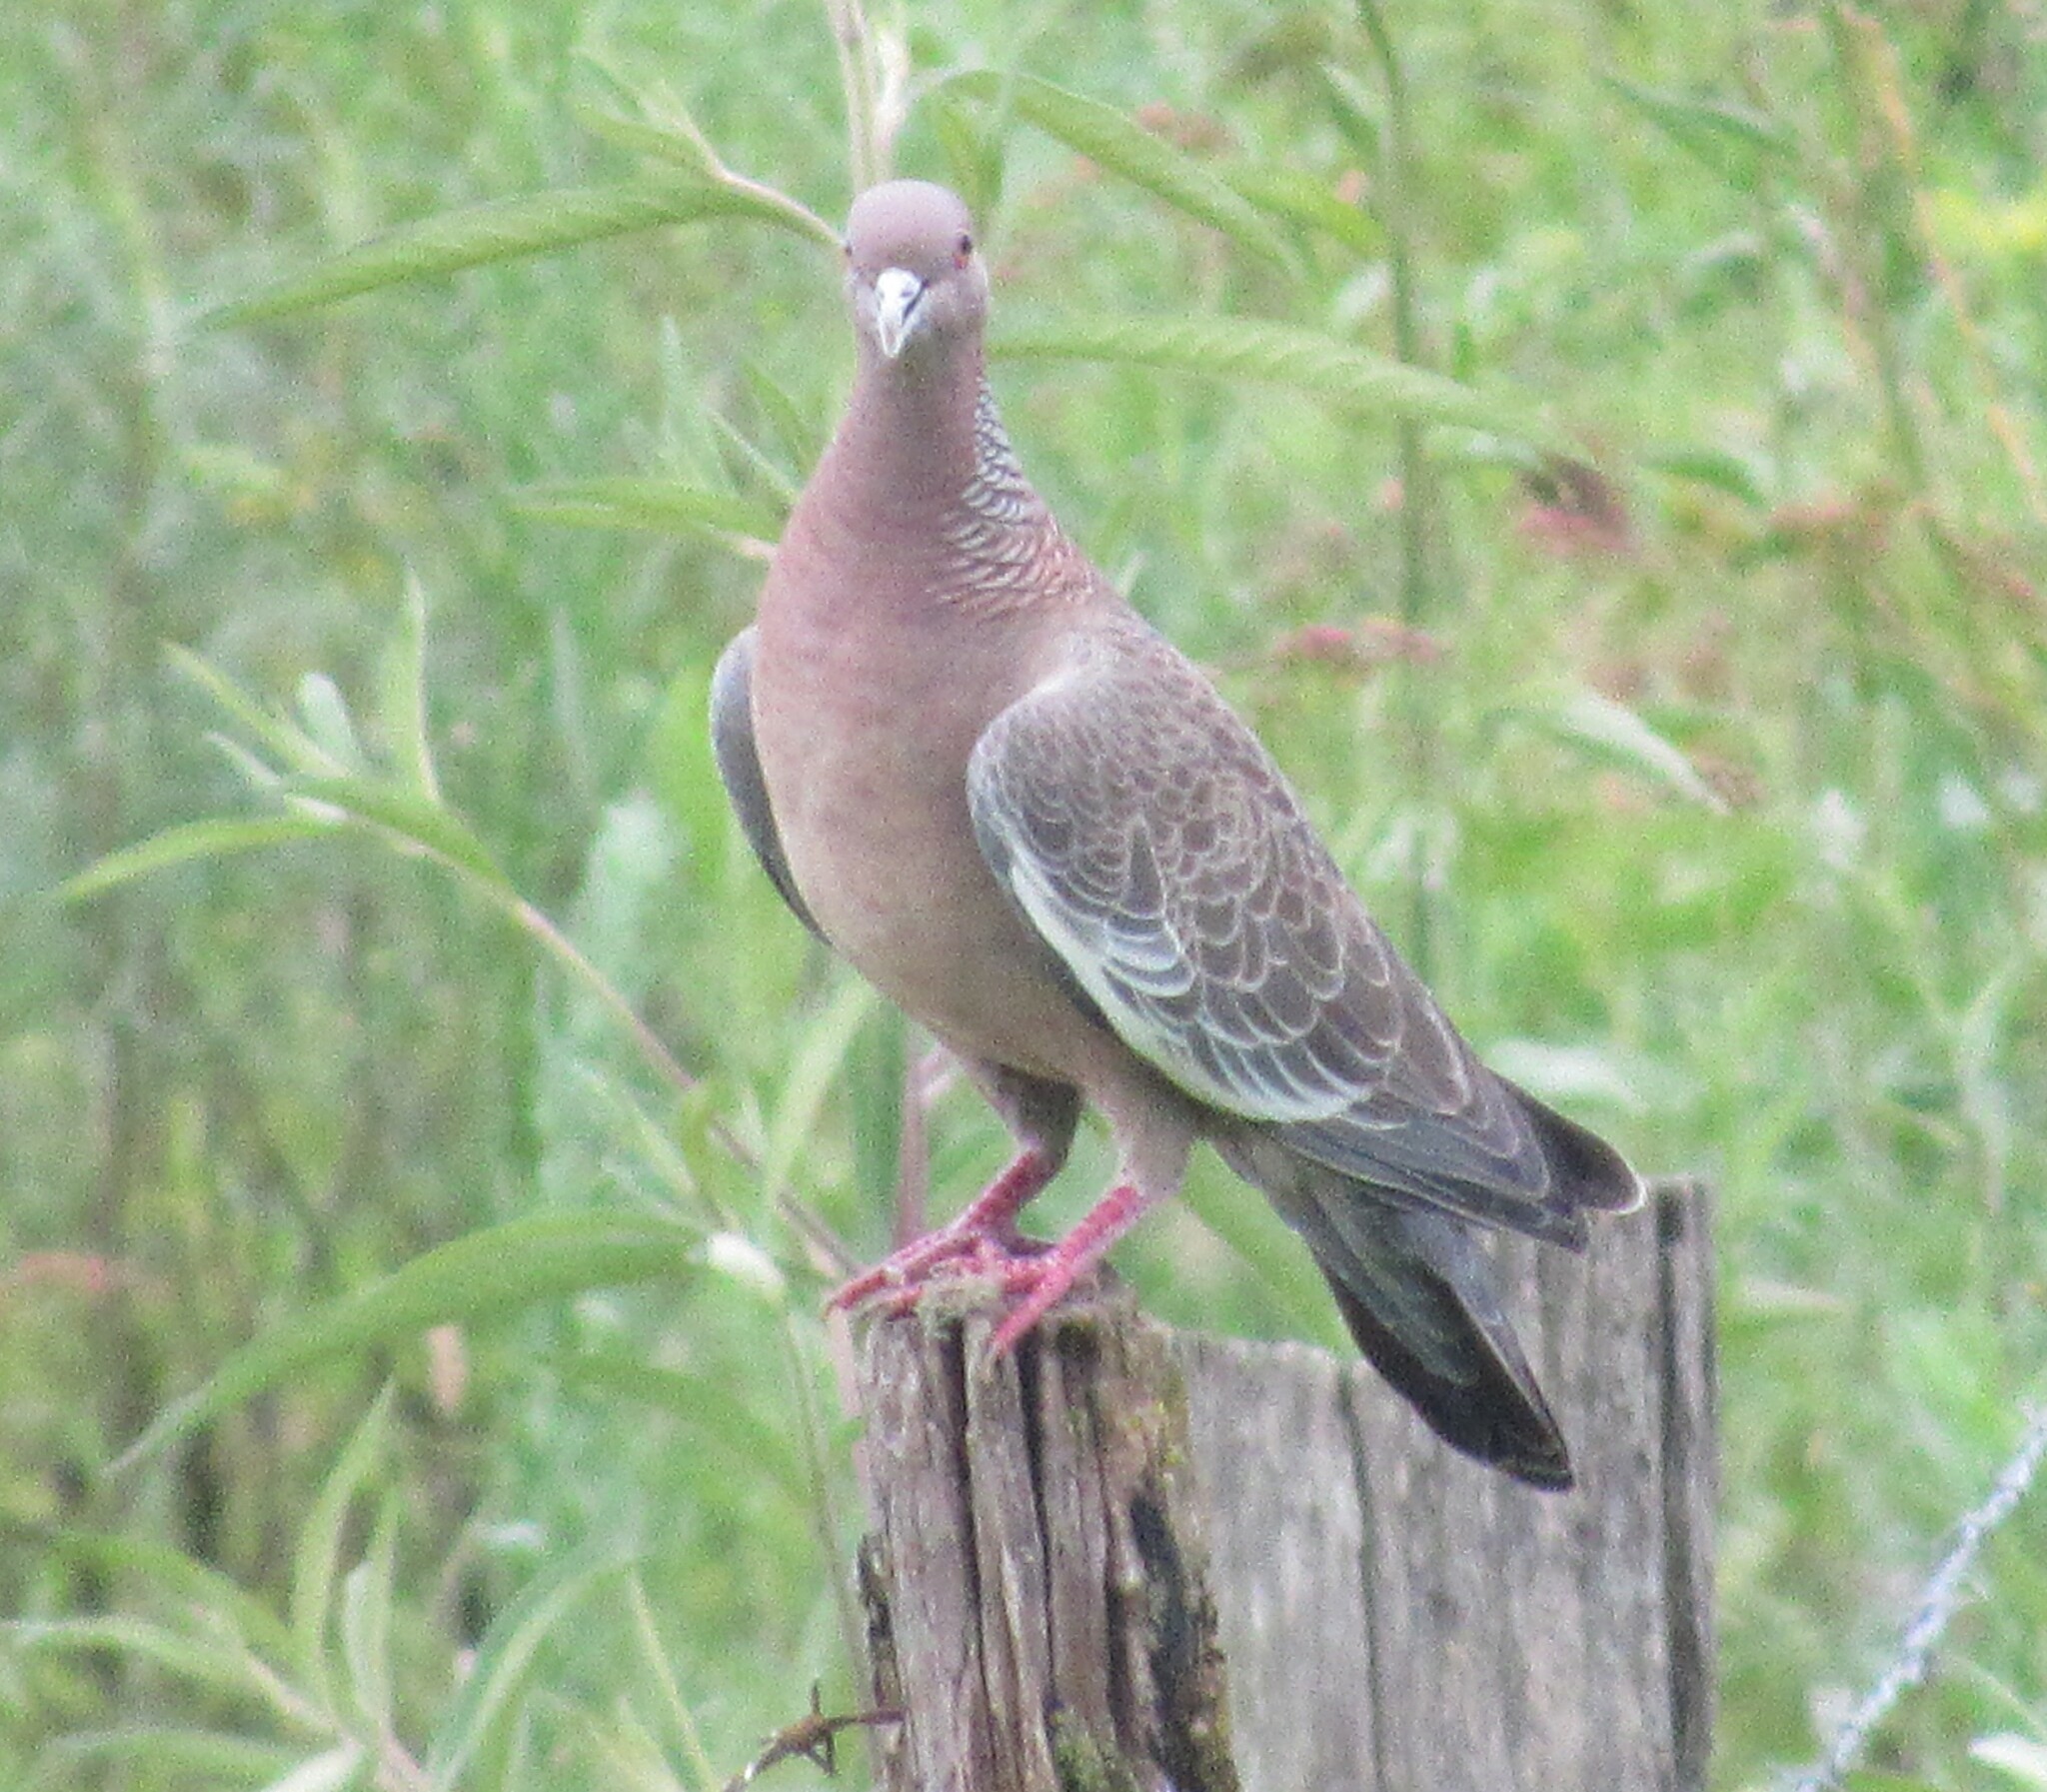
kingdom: Animalia
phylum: Chordata
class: Aves
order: Columbiformes
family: Columbidae
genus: Patagioenas
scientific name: Patagioenas picazuro
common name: Picazuro pigeon
